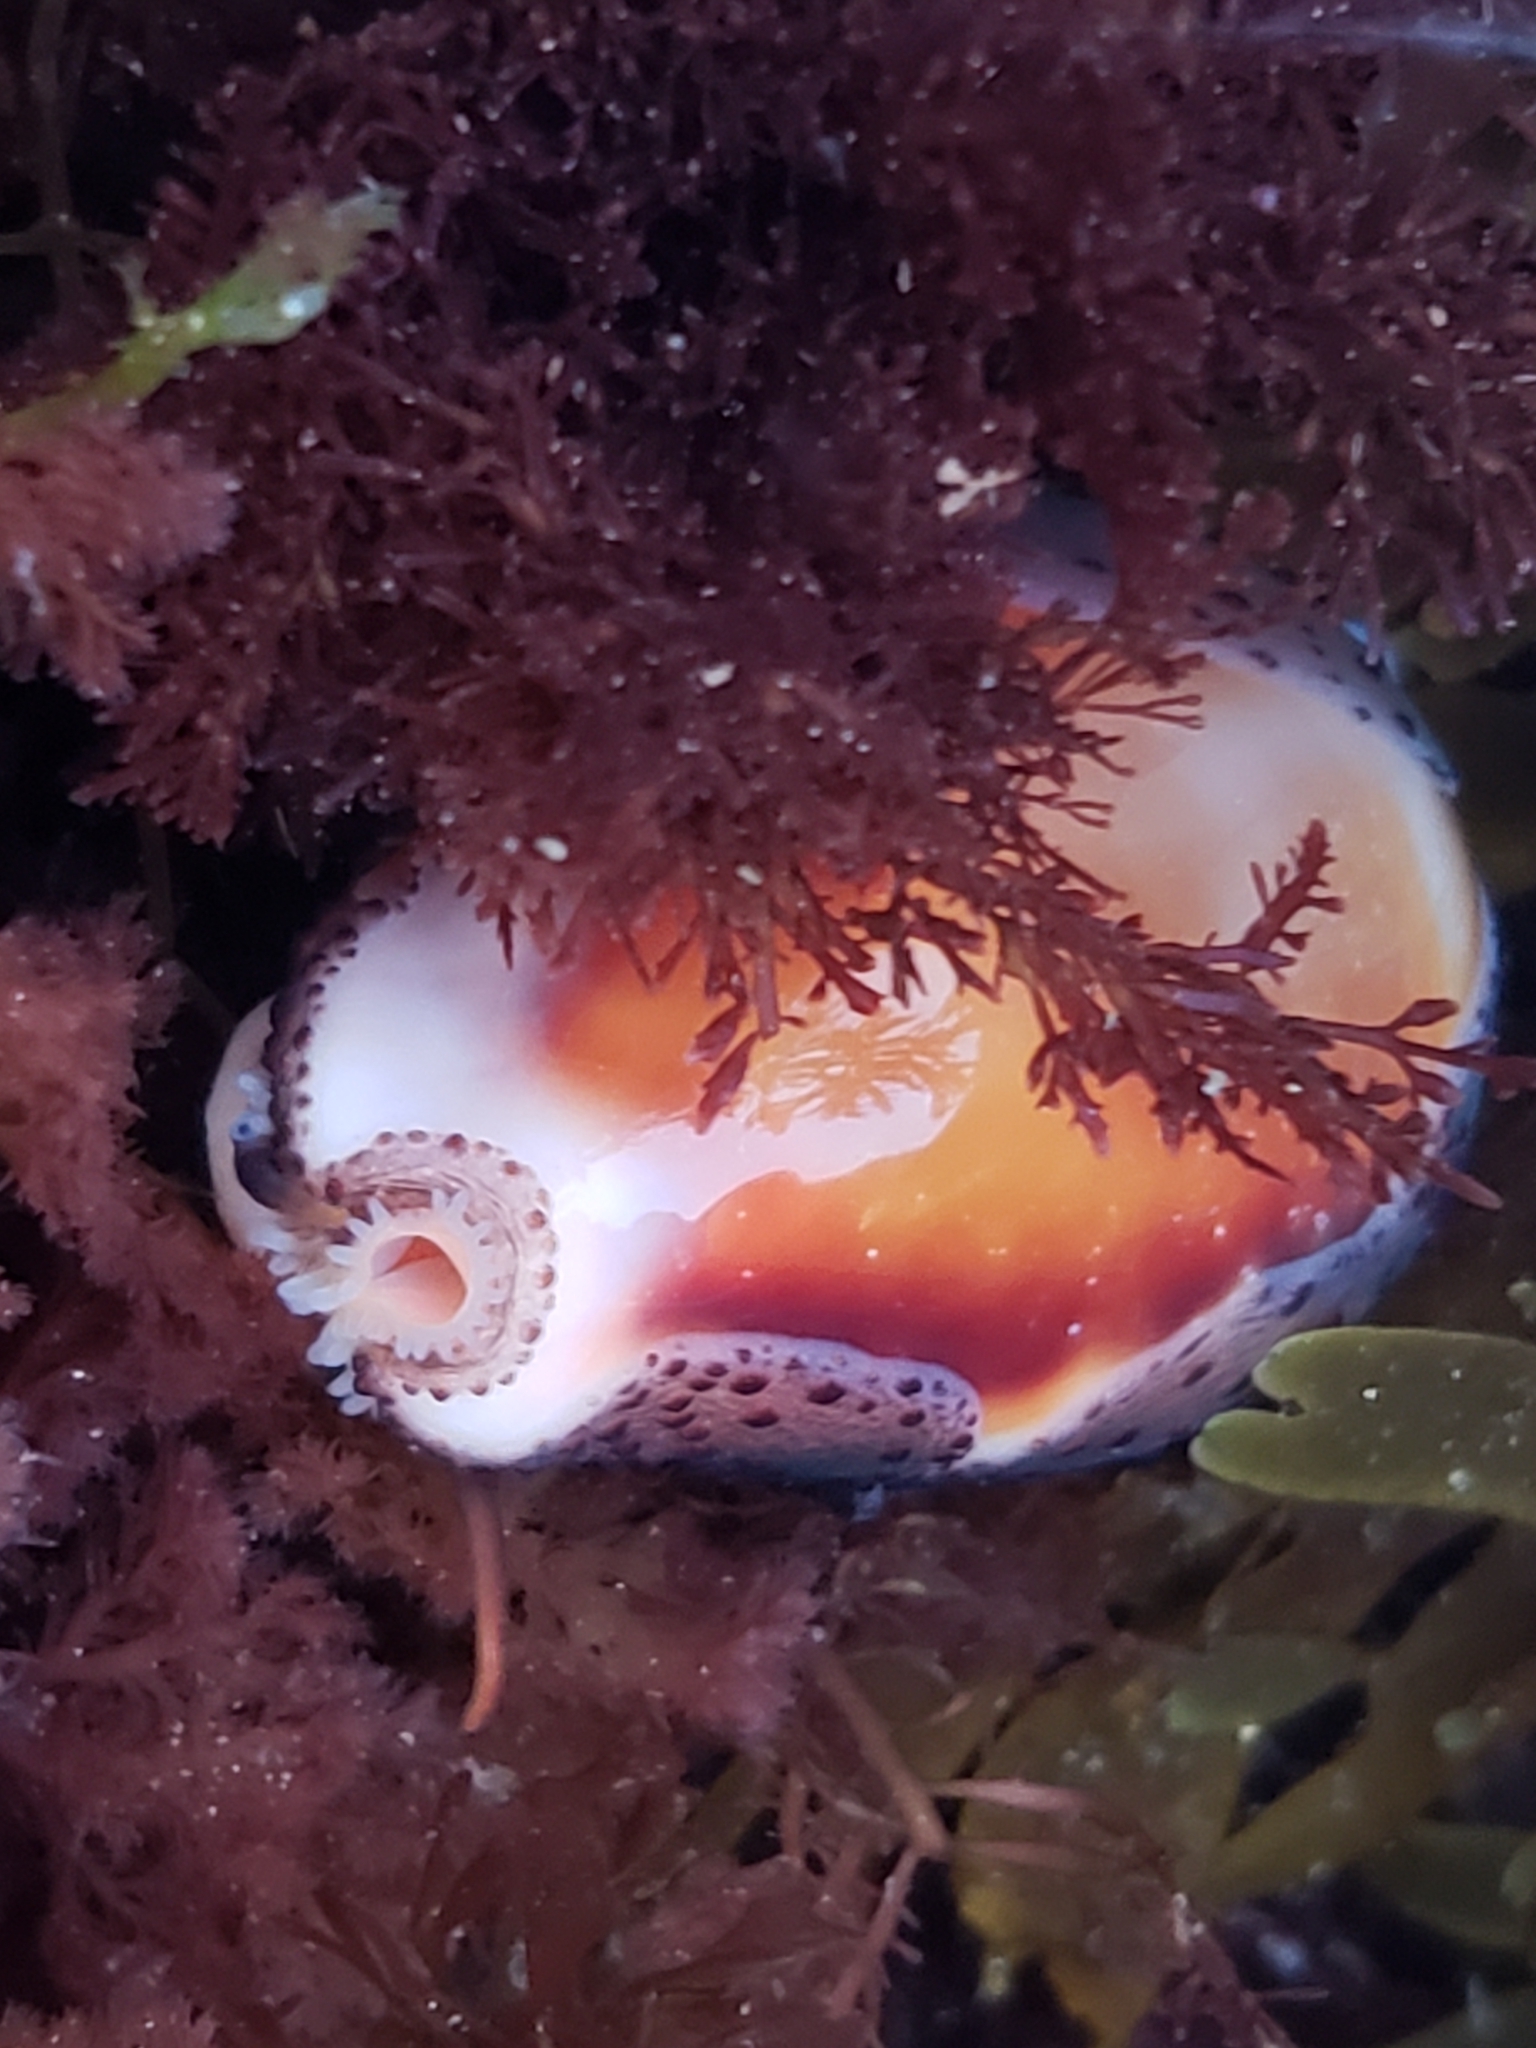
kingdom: Animalia
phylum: Mollusca
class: Gastropoda
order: Littorinimorpha
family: Cypraeidae
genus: Neobernaya
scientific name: Neobernaya spadicea
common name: Chestnut cowrie
